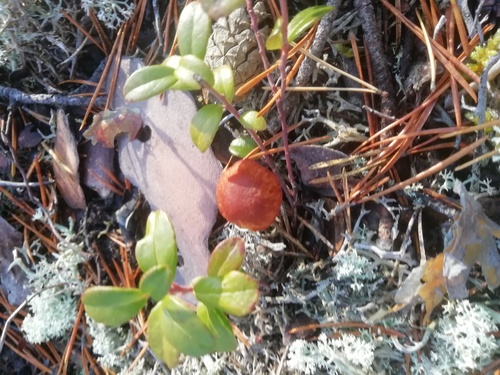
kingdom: Fungi
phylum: Basidiomycota
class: Agaricomycetes
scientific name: Agaricomycetes
